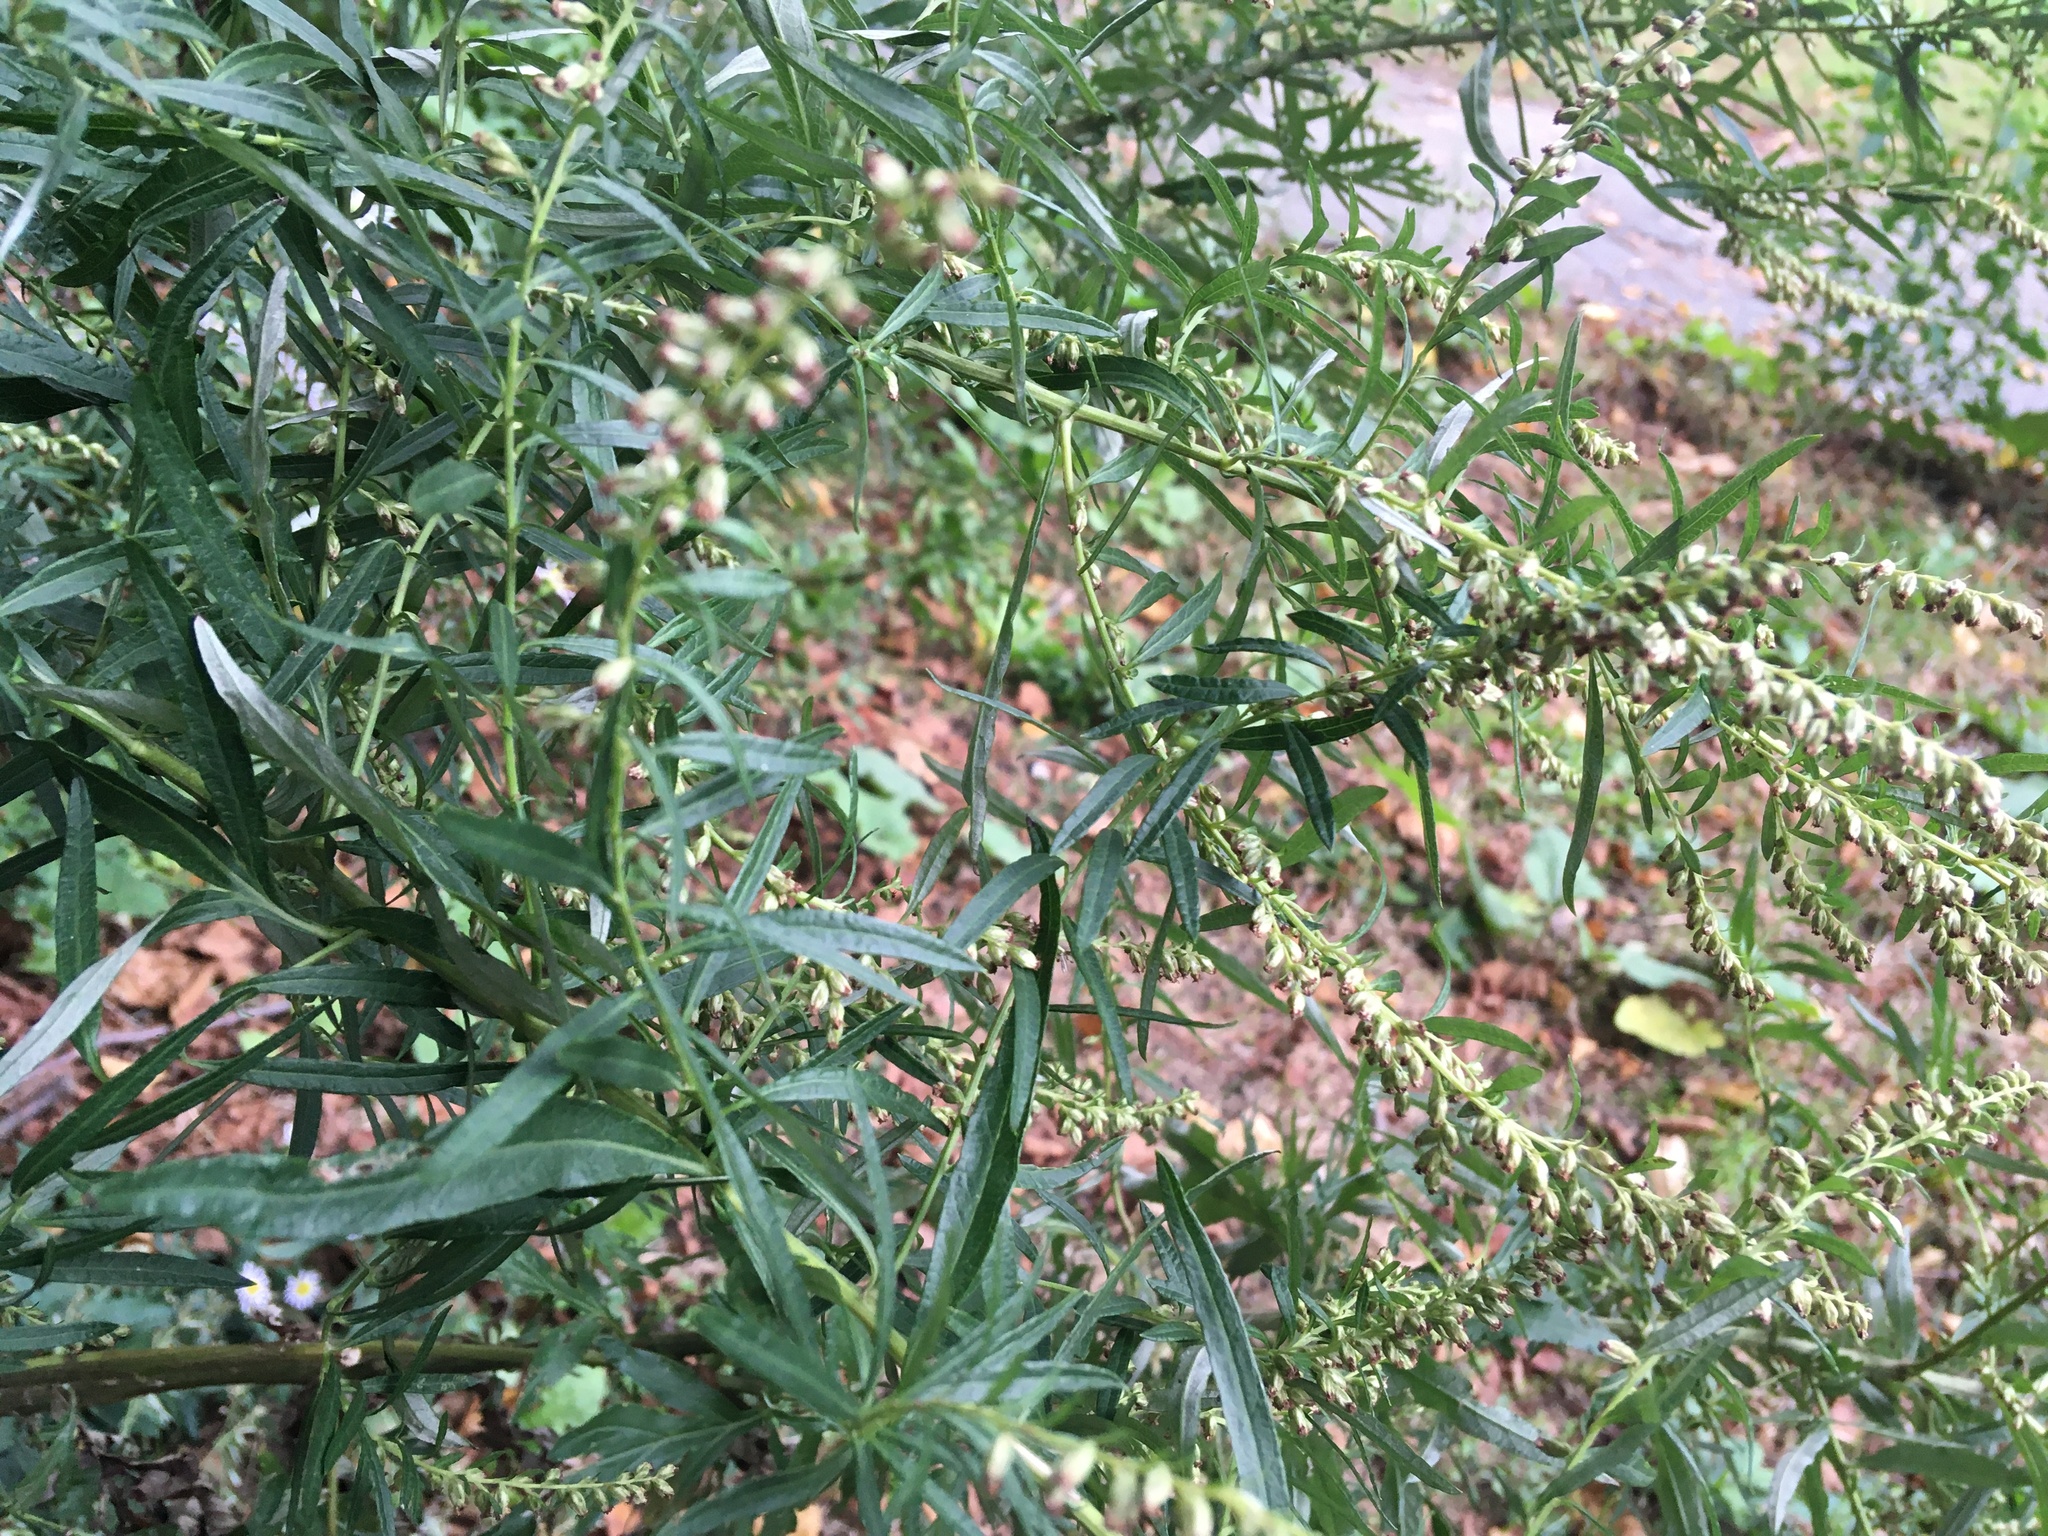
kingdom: Plantae
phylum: Tracheophyta
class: Magnoliopsida
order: Asterales
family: Asteraceae
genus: Artemisia
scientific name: Artemisia vulgaris
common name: Mugwort
